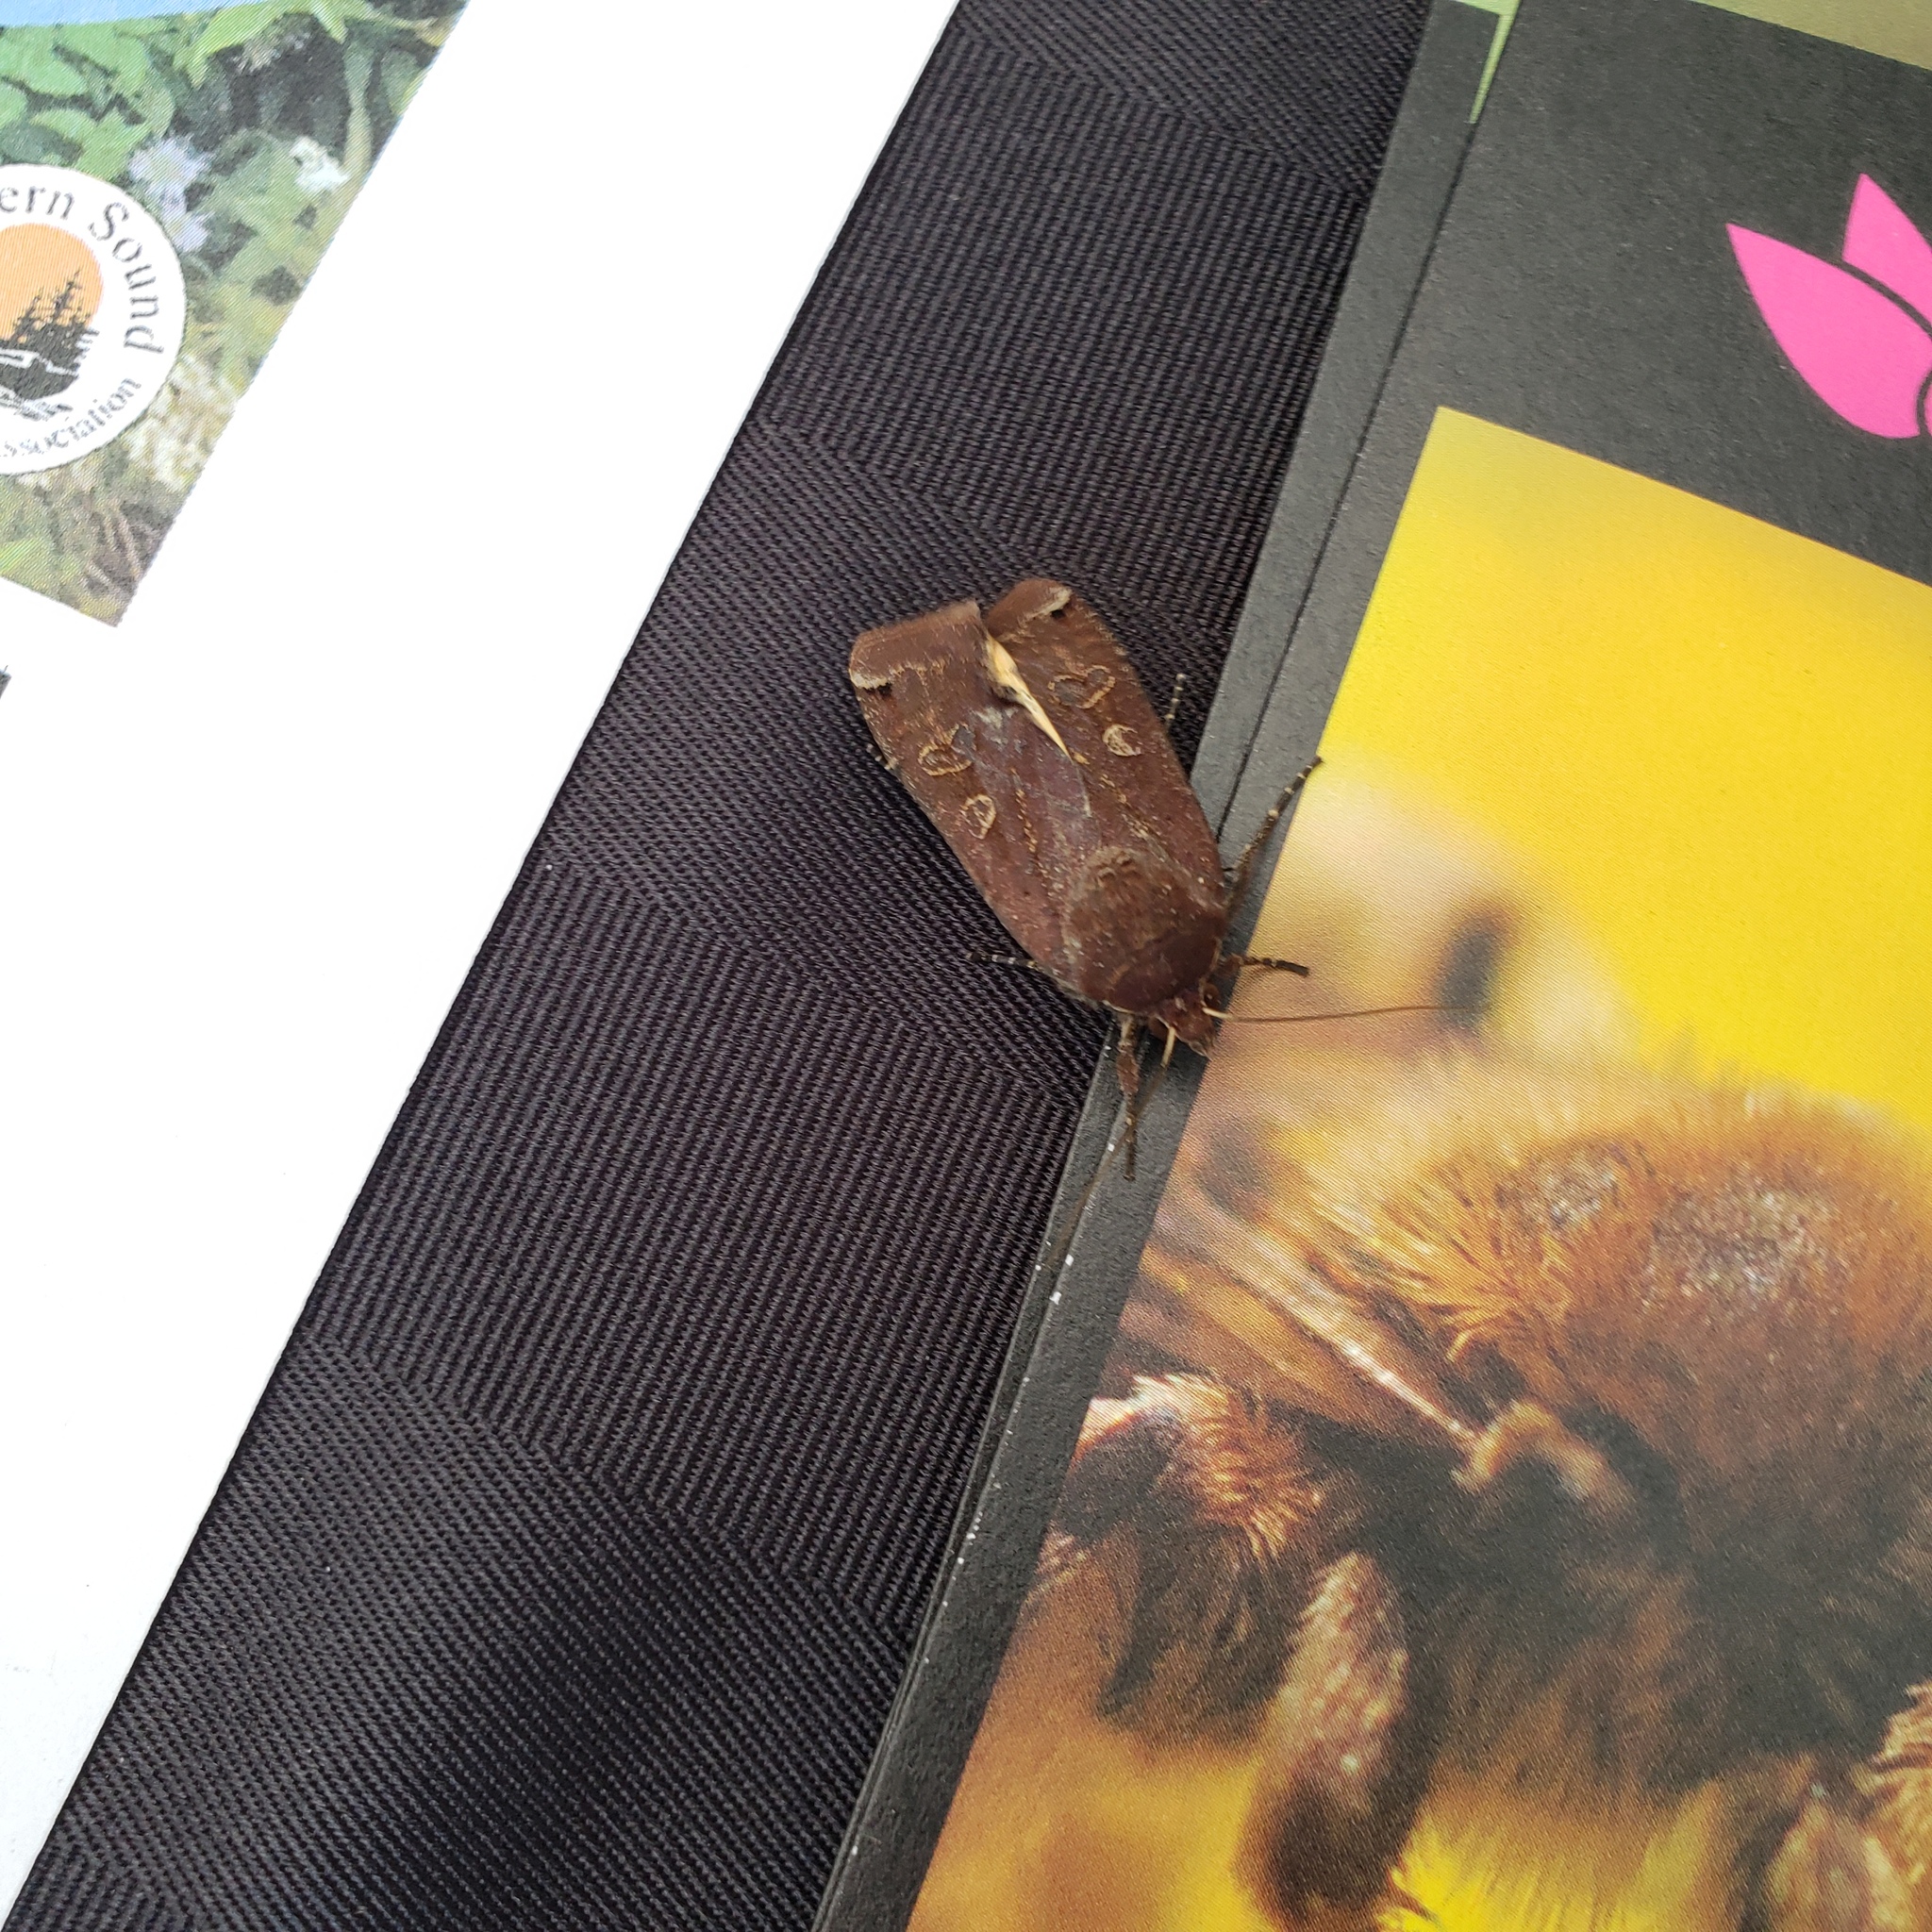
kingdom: Animalia
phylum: Arthropoda
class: Insecta
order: Lepidoptera
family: Noctuidae
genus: Noctua
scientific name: Noctua pronuba
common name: Large yellow underwing
